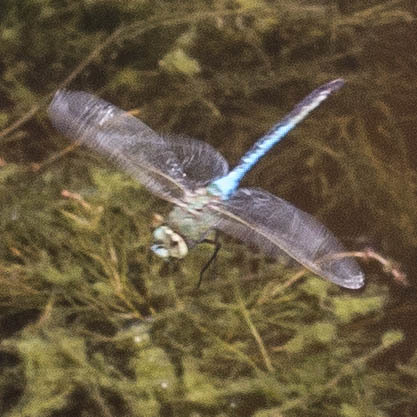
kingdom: Animalia
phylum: Arthropoda
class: Insecta
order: Odonata
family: Aeshnidae
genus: Anax
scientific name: Anax junius
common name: Common green darner
